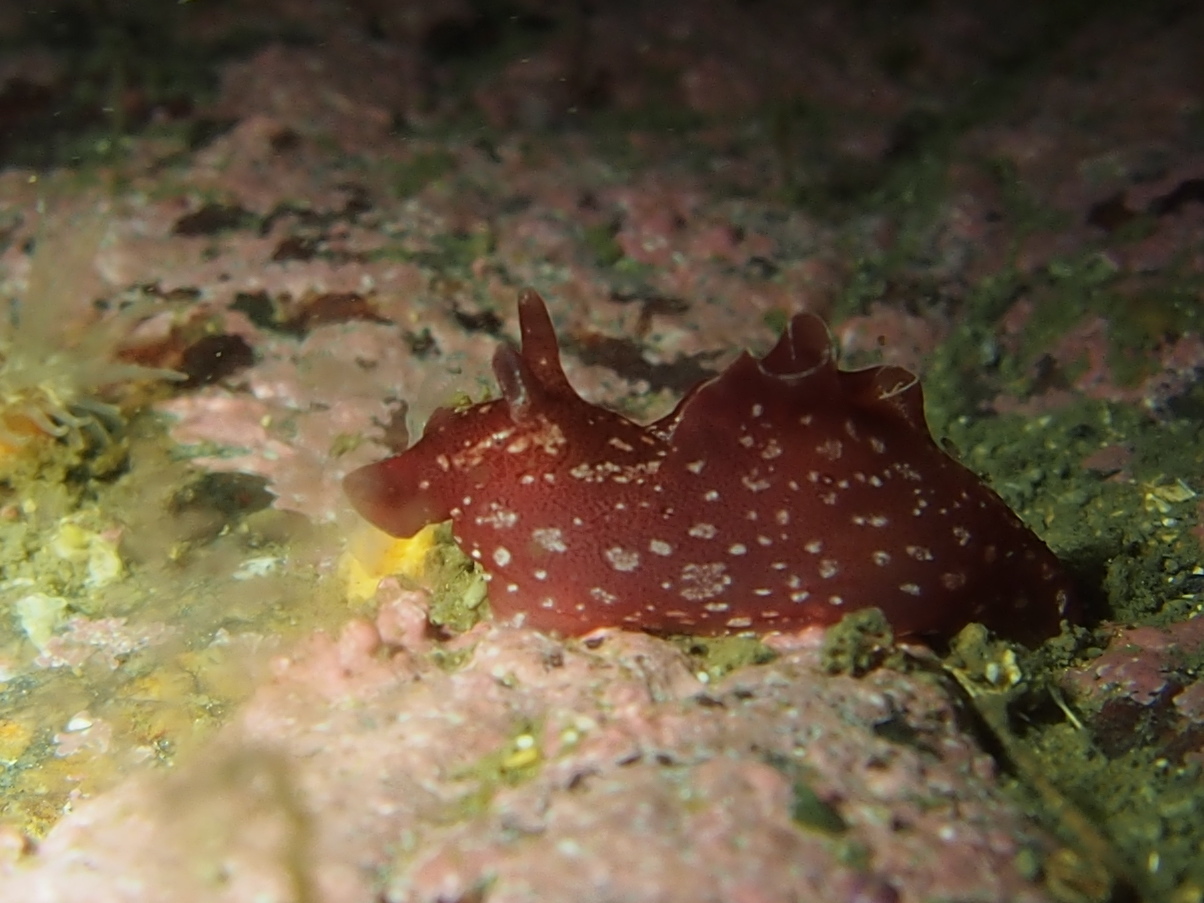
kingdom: Animalia
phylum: Mollusca
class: Gastropoda
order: Aplysiida
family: Aplysiidae
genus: Aplysia
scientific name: Aplysia punctata
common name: Common sea hare
